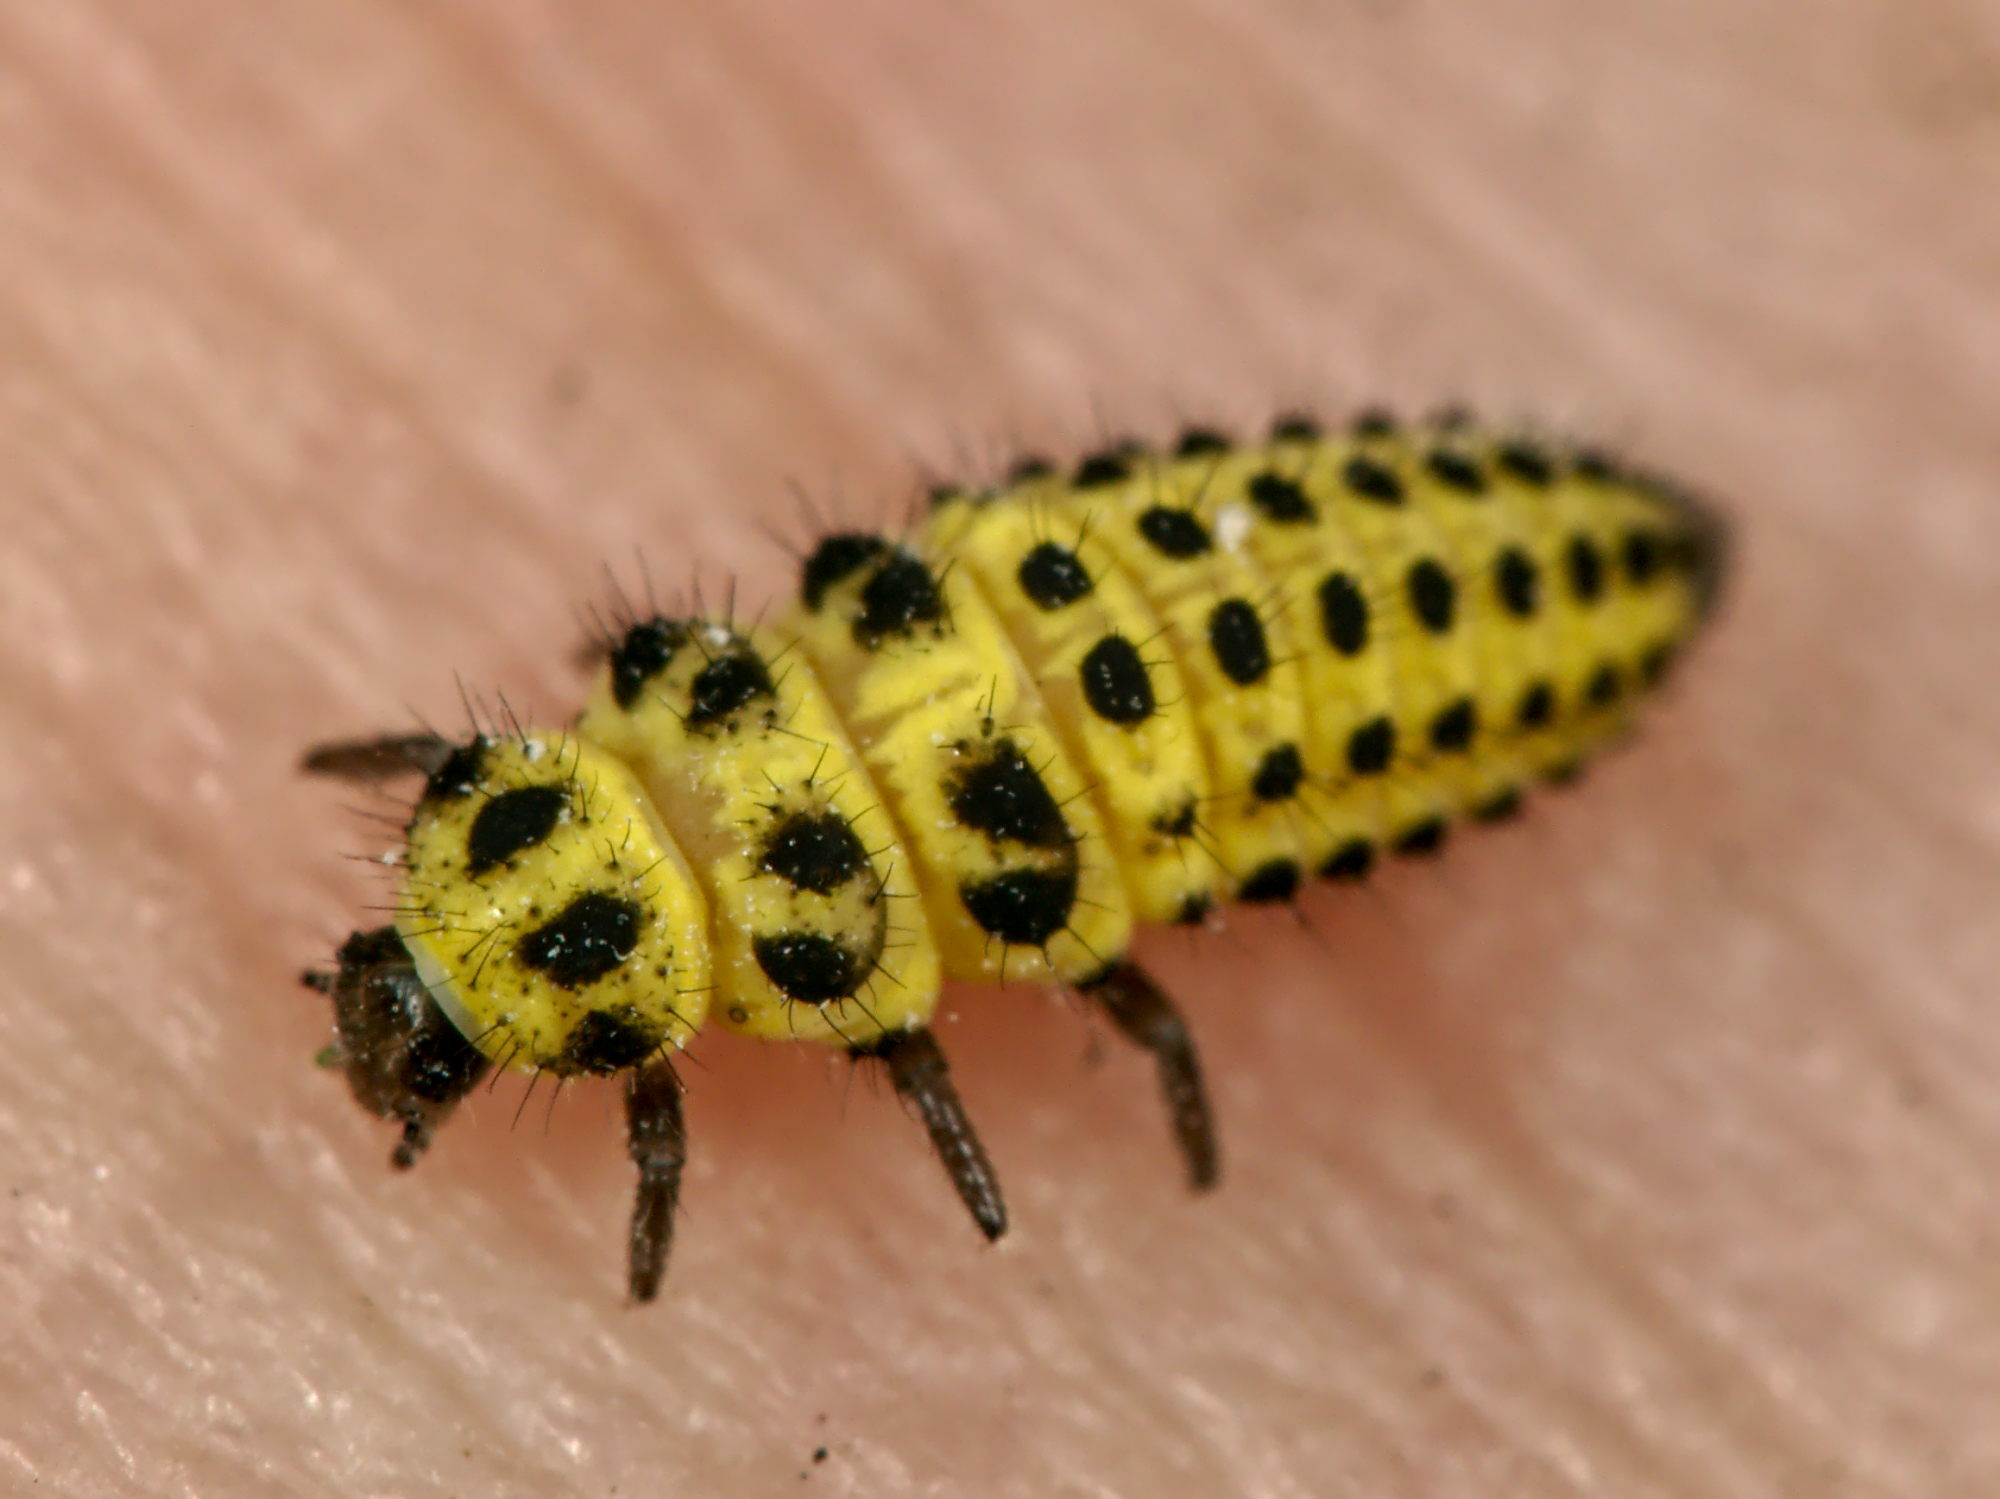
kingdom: Animalia
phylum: Arthropoda
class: Insecta
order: Coleoptera
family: Coccinellidae
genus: Psyllobora
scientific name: Psyllobora vigintiduopunctata
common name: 22-spot ladybird
